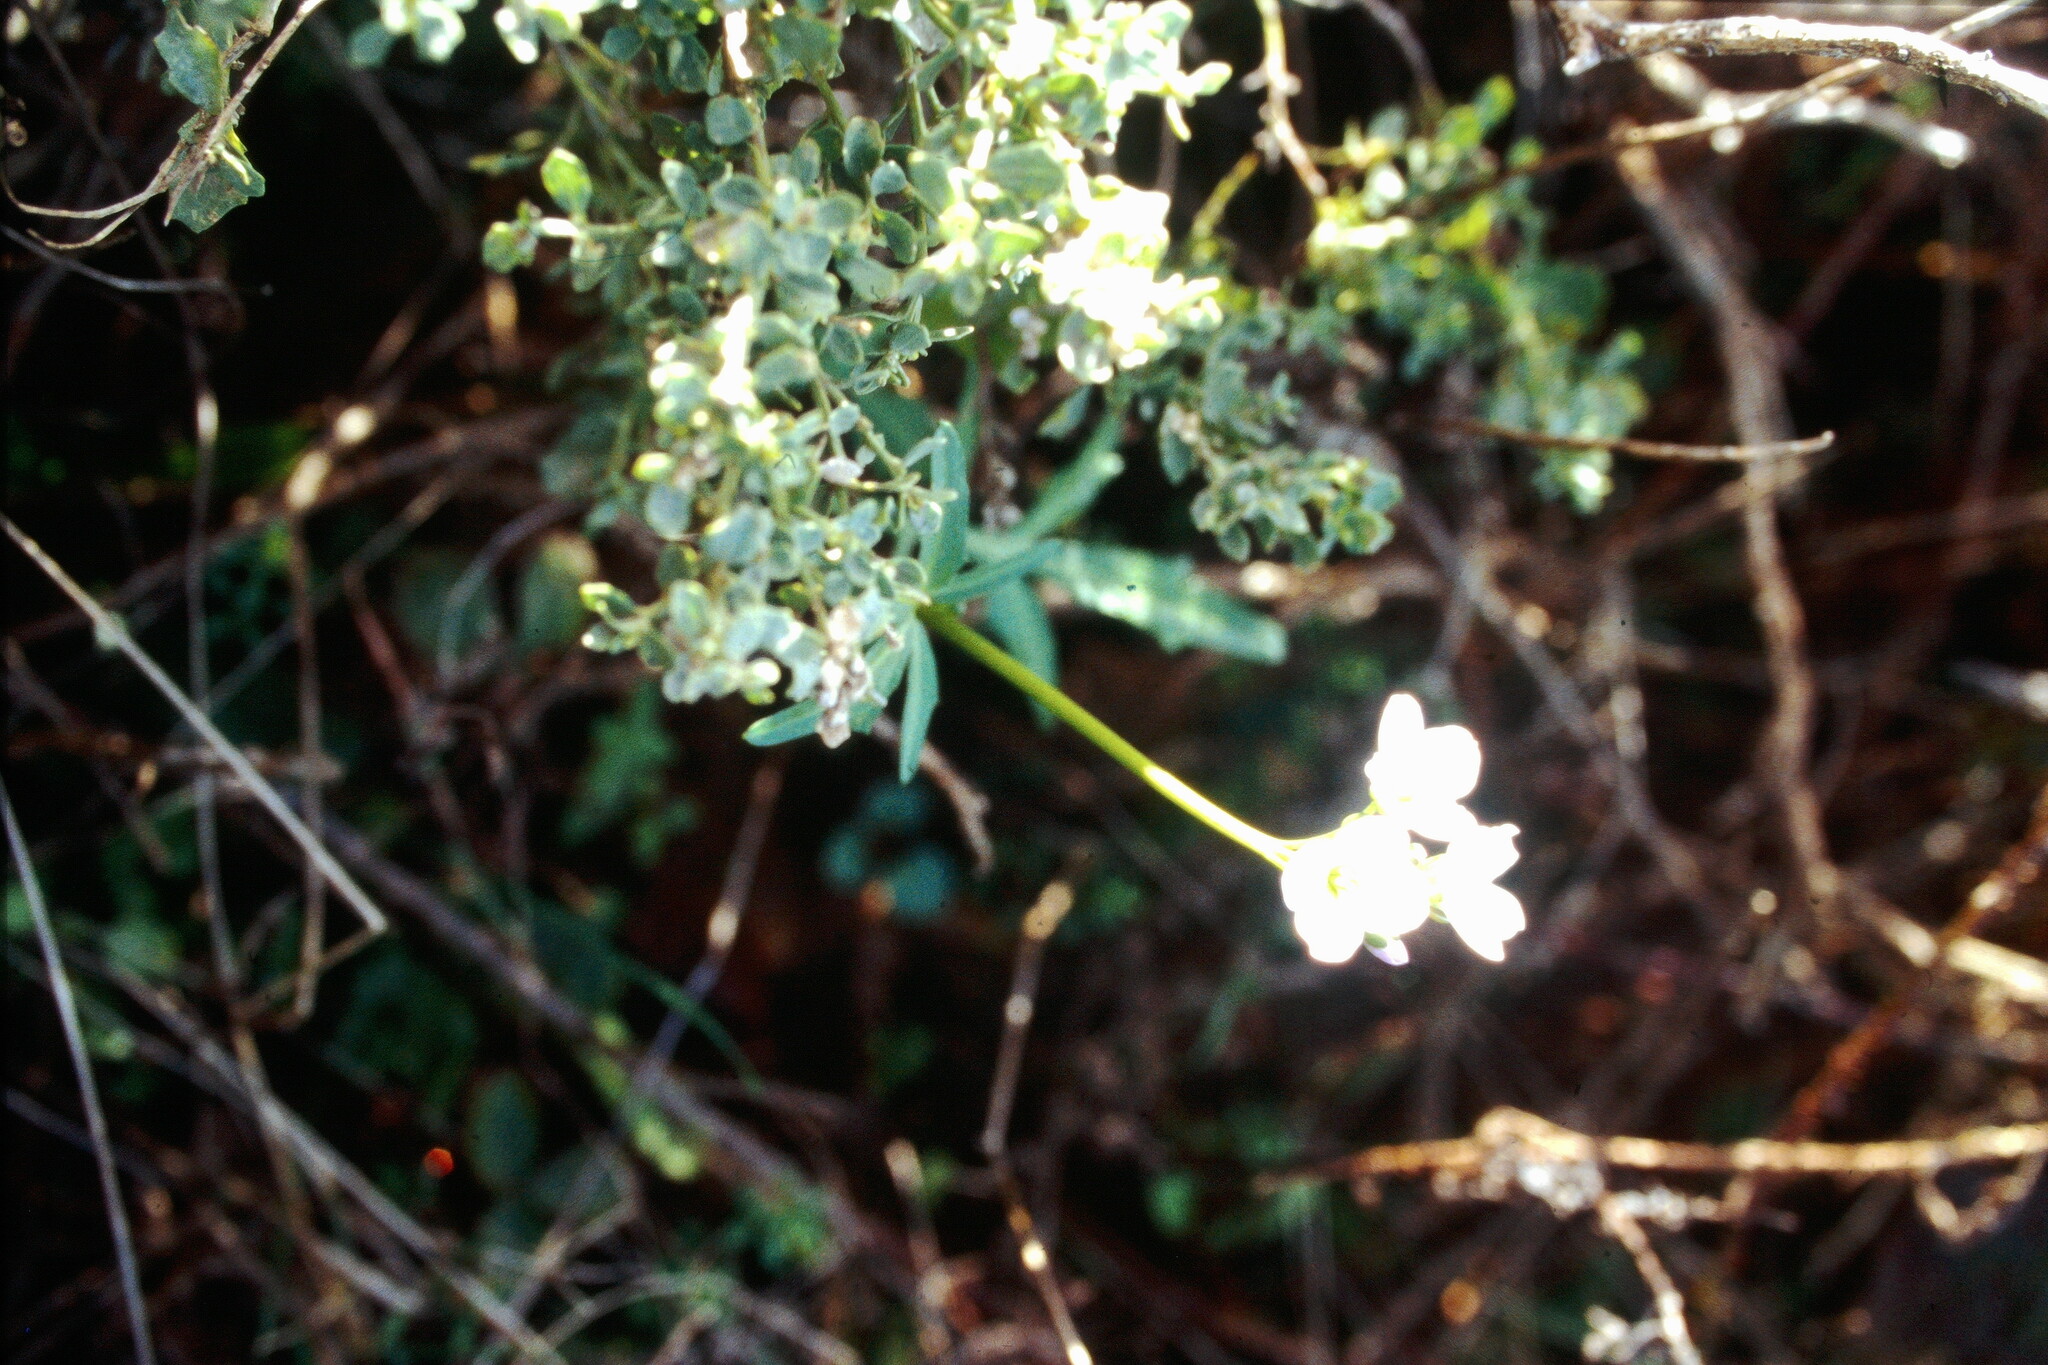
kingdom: Plantae
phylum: Tracheophyta
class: Magnoliopsida
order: Brassicales
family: Brassicaceae
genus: Cardamine
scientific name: Cardamine californica
